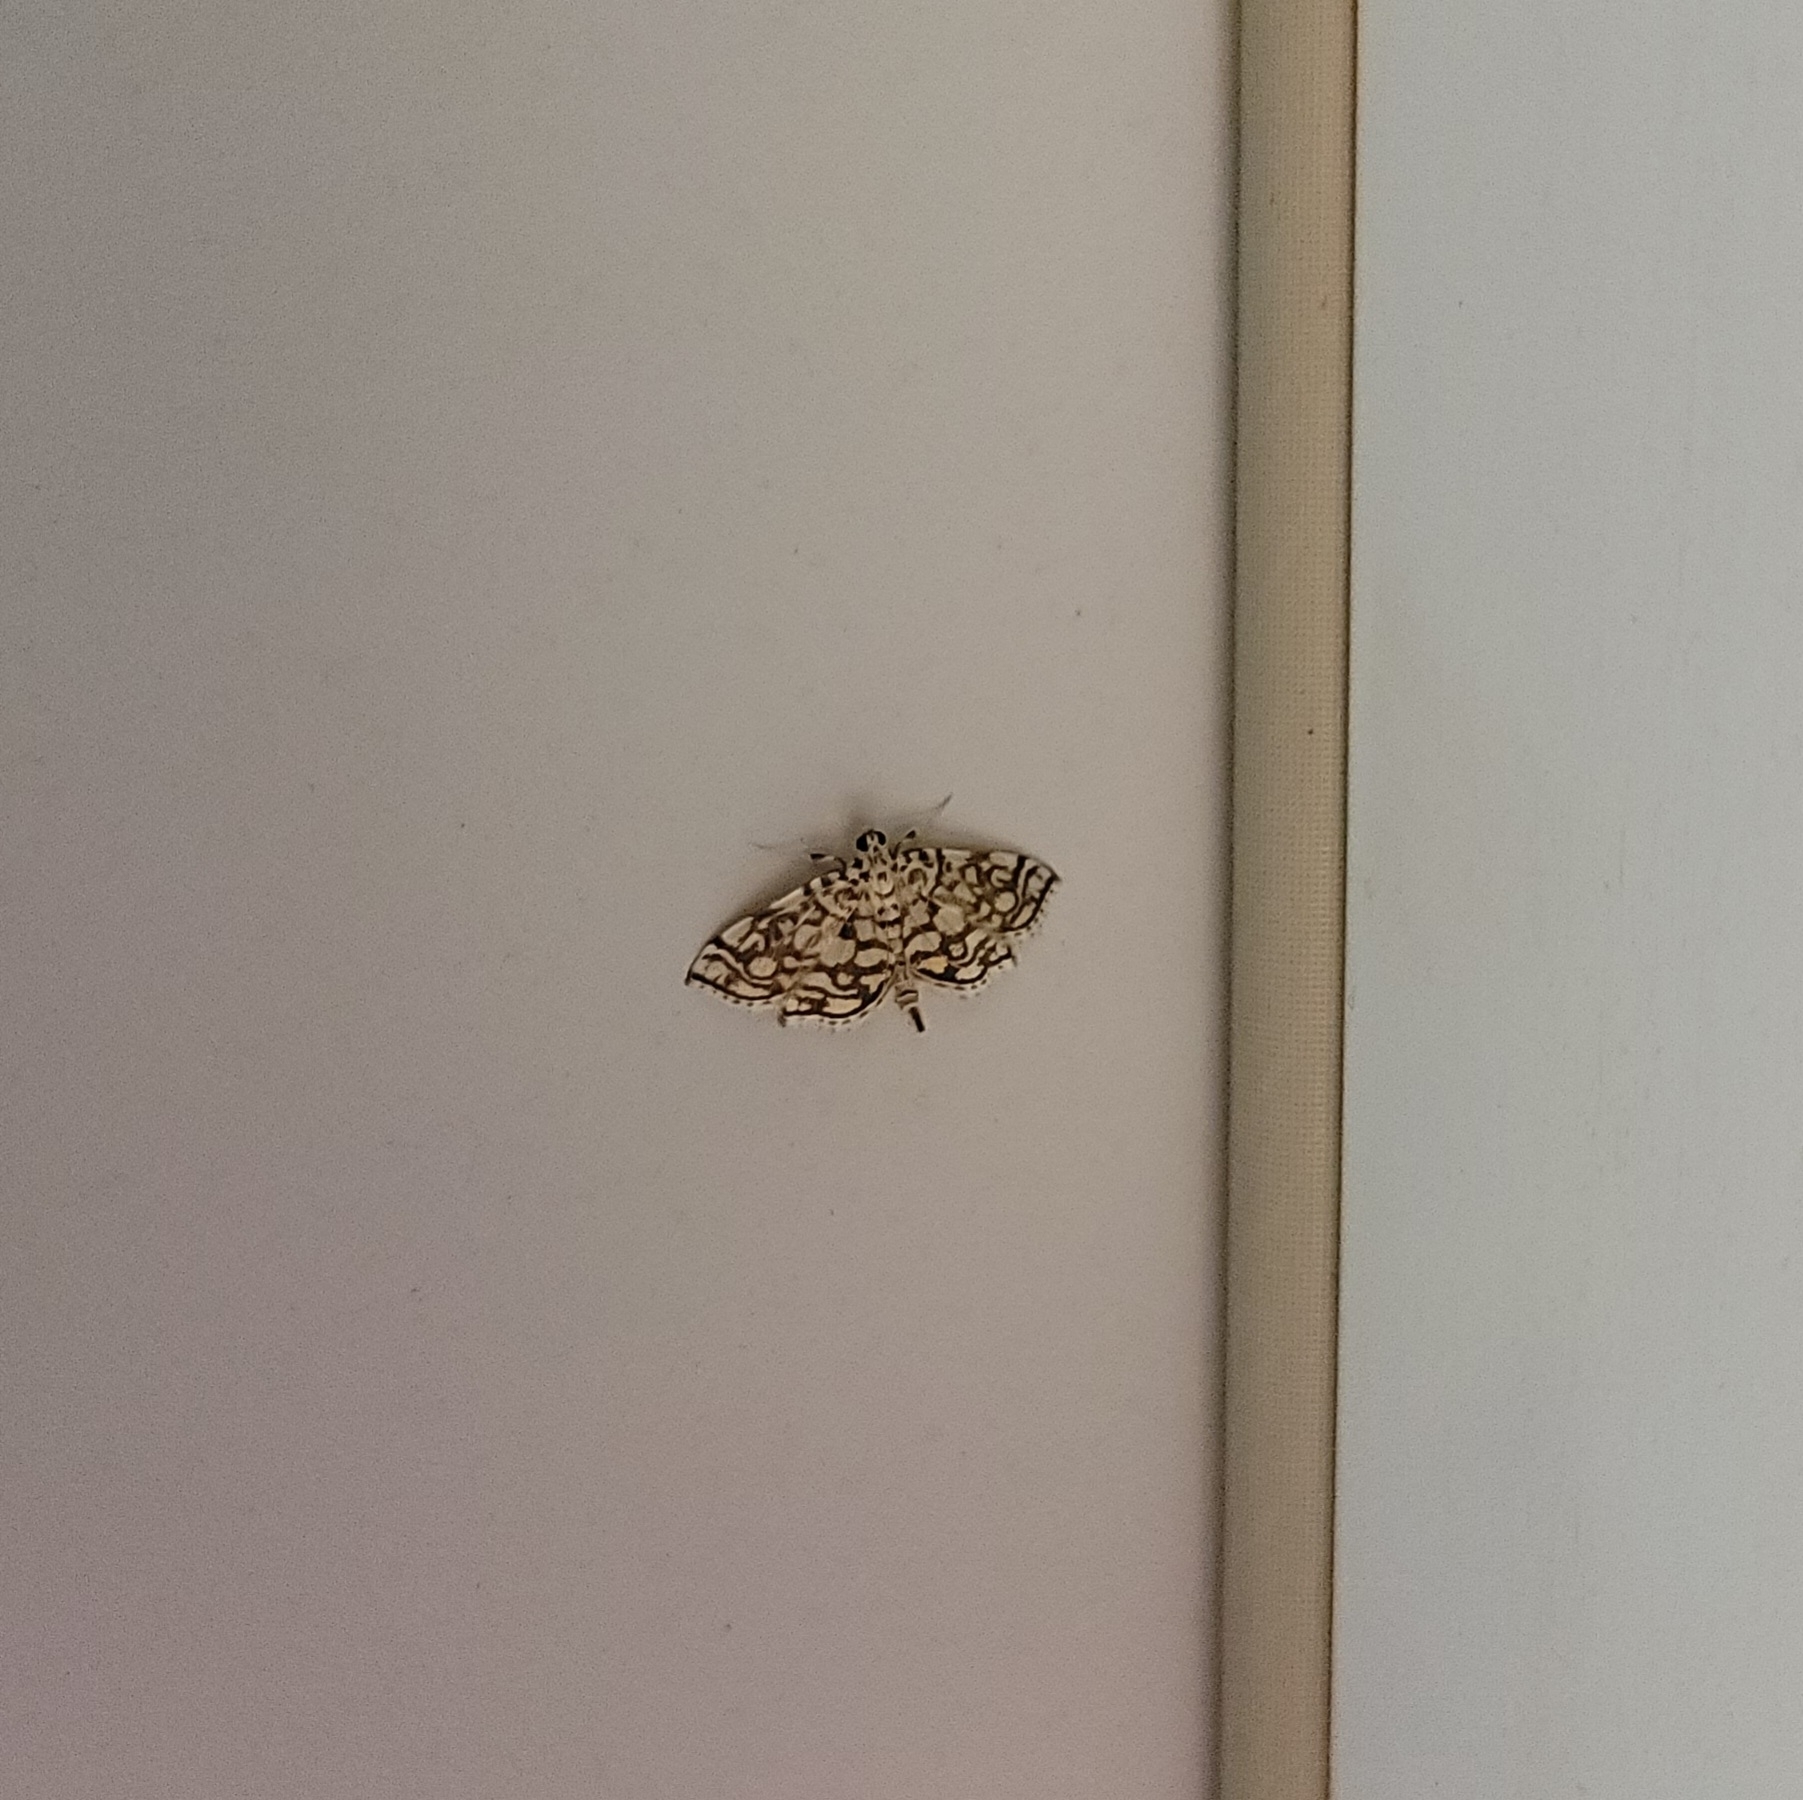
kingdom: Animalia
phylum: Arthropoda
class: Insecta
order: Lepidoptera
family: Crambidae
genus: Lygropia
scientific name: Lygropia rivulalis
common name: Bog lygropia moth
